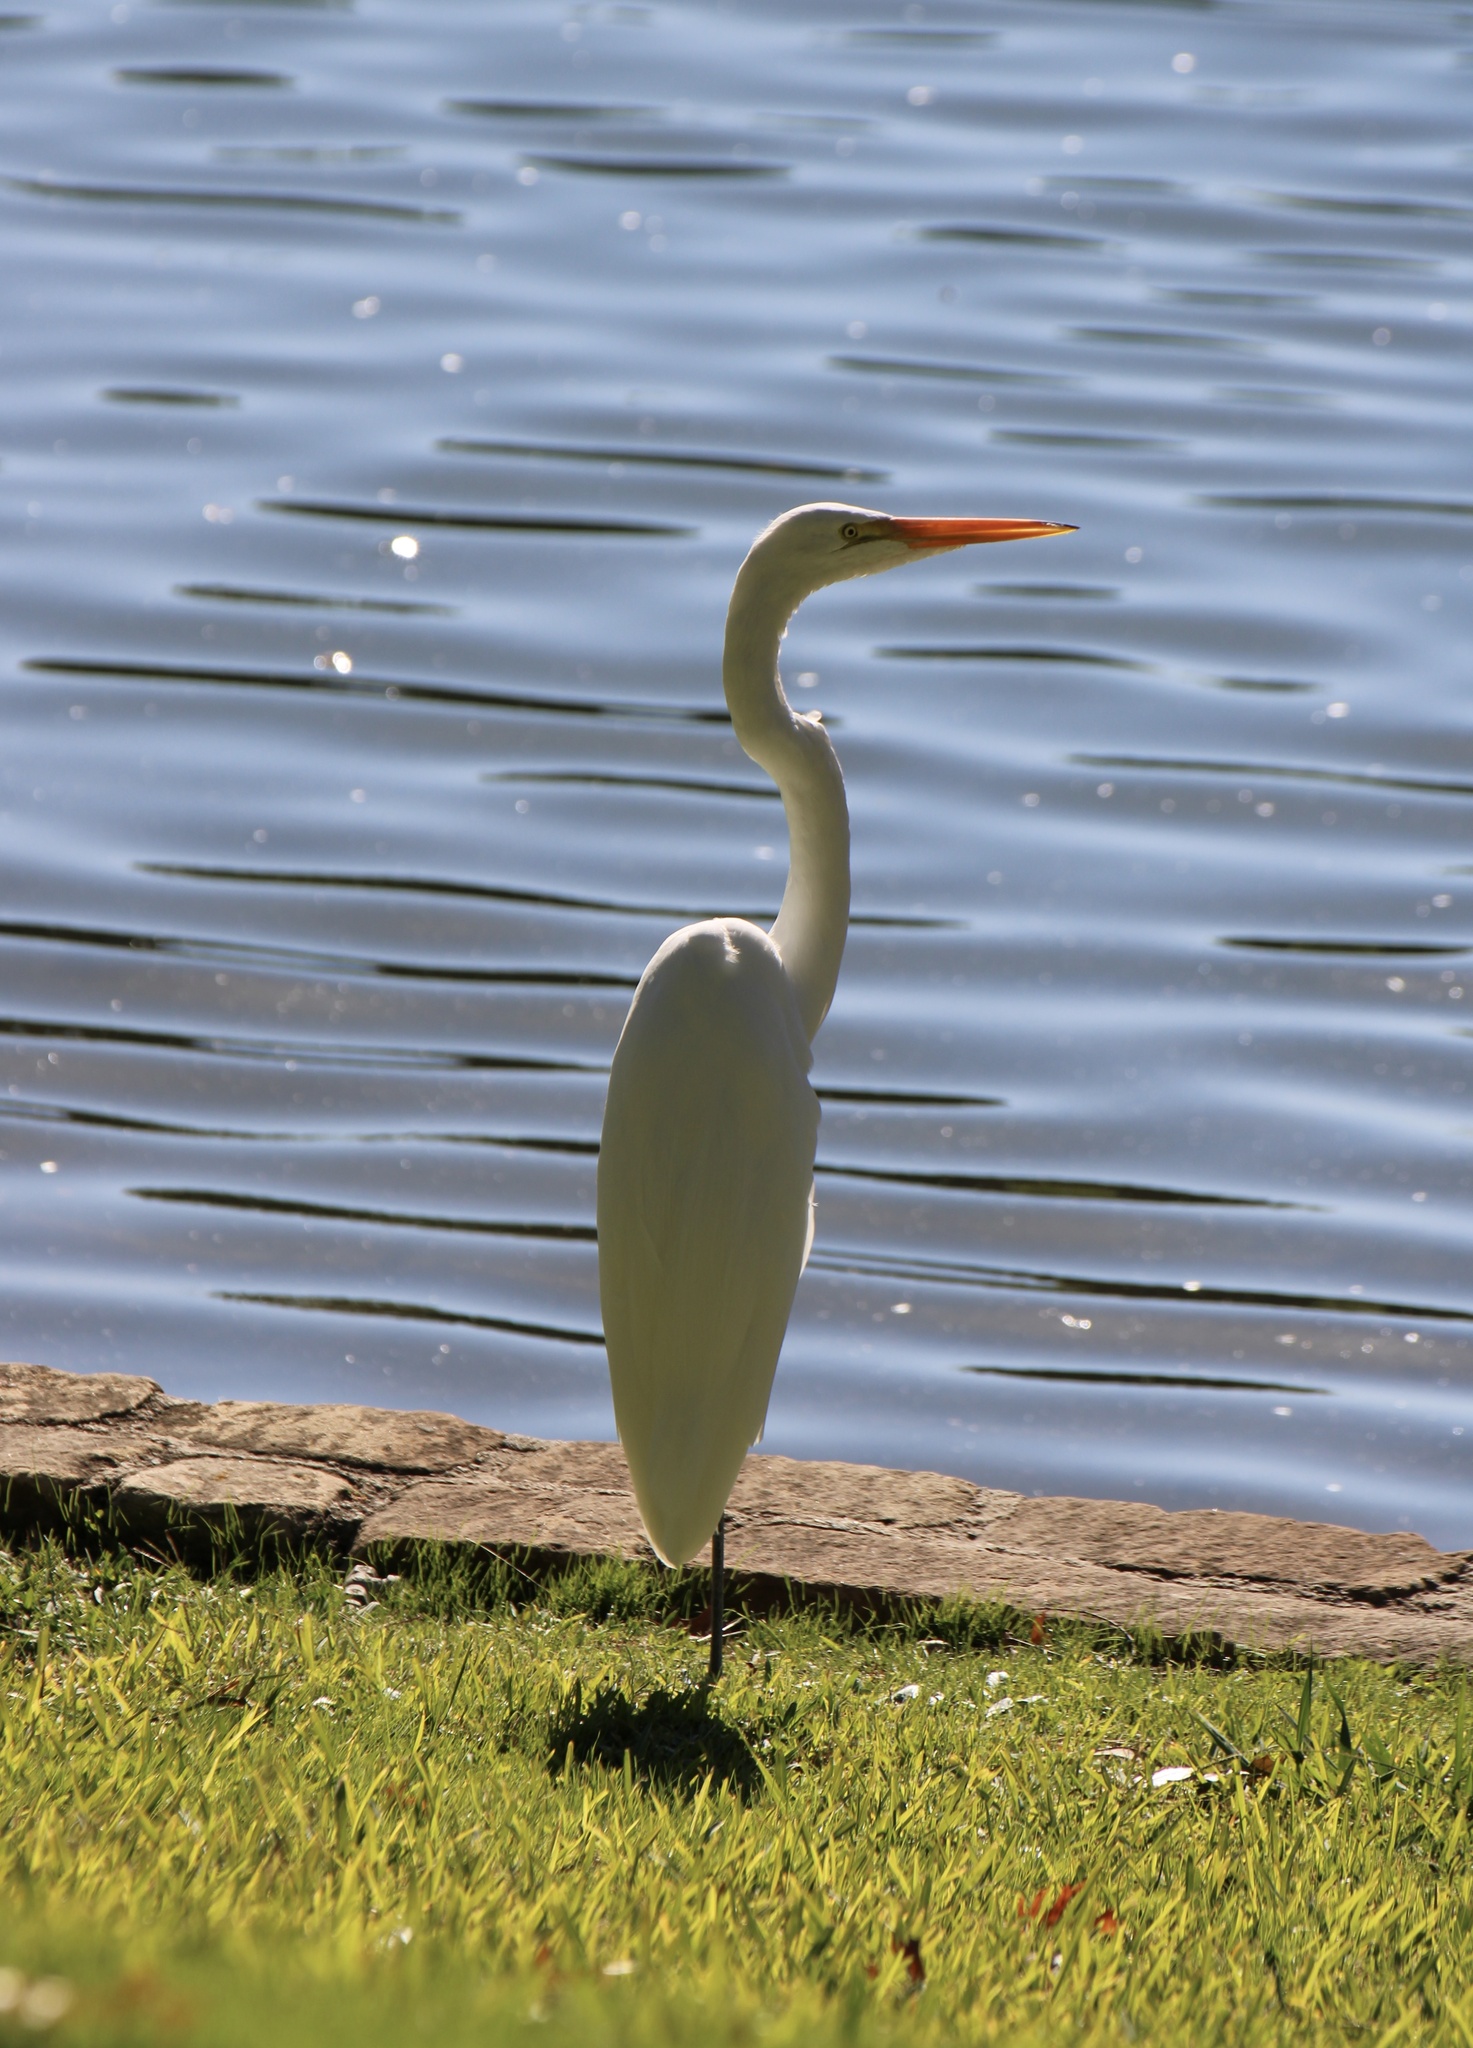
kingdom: Animalia
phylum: Chordata
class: Aves
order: Pelecaniformes
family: Ardeidae
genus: Ardea
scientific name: Ardea alba
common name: Great egret
